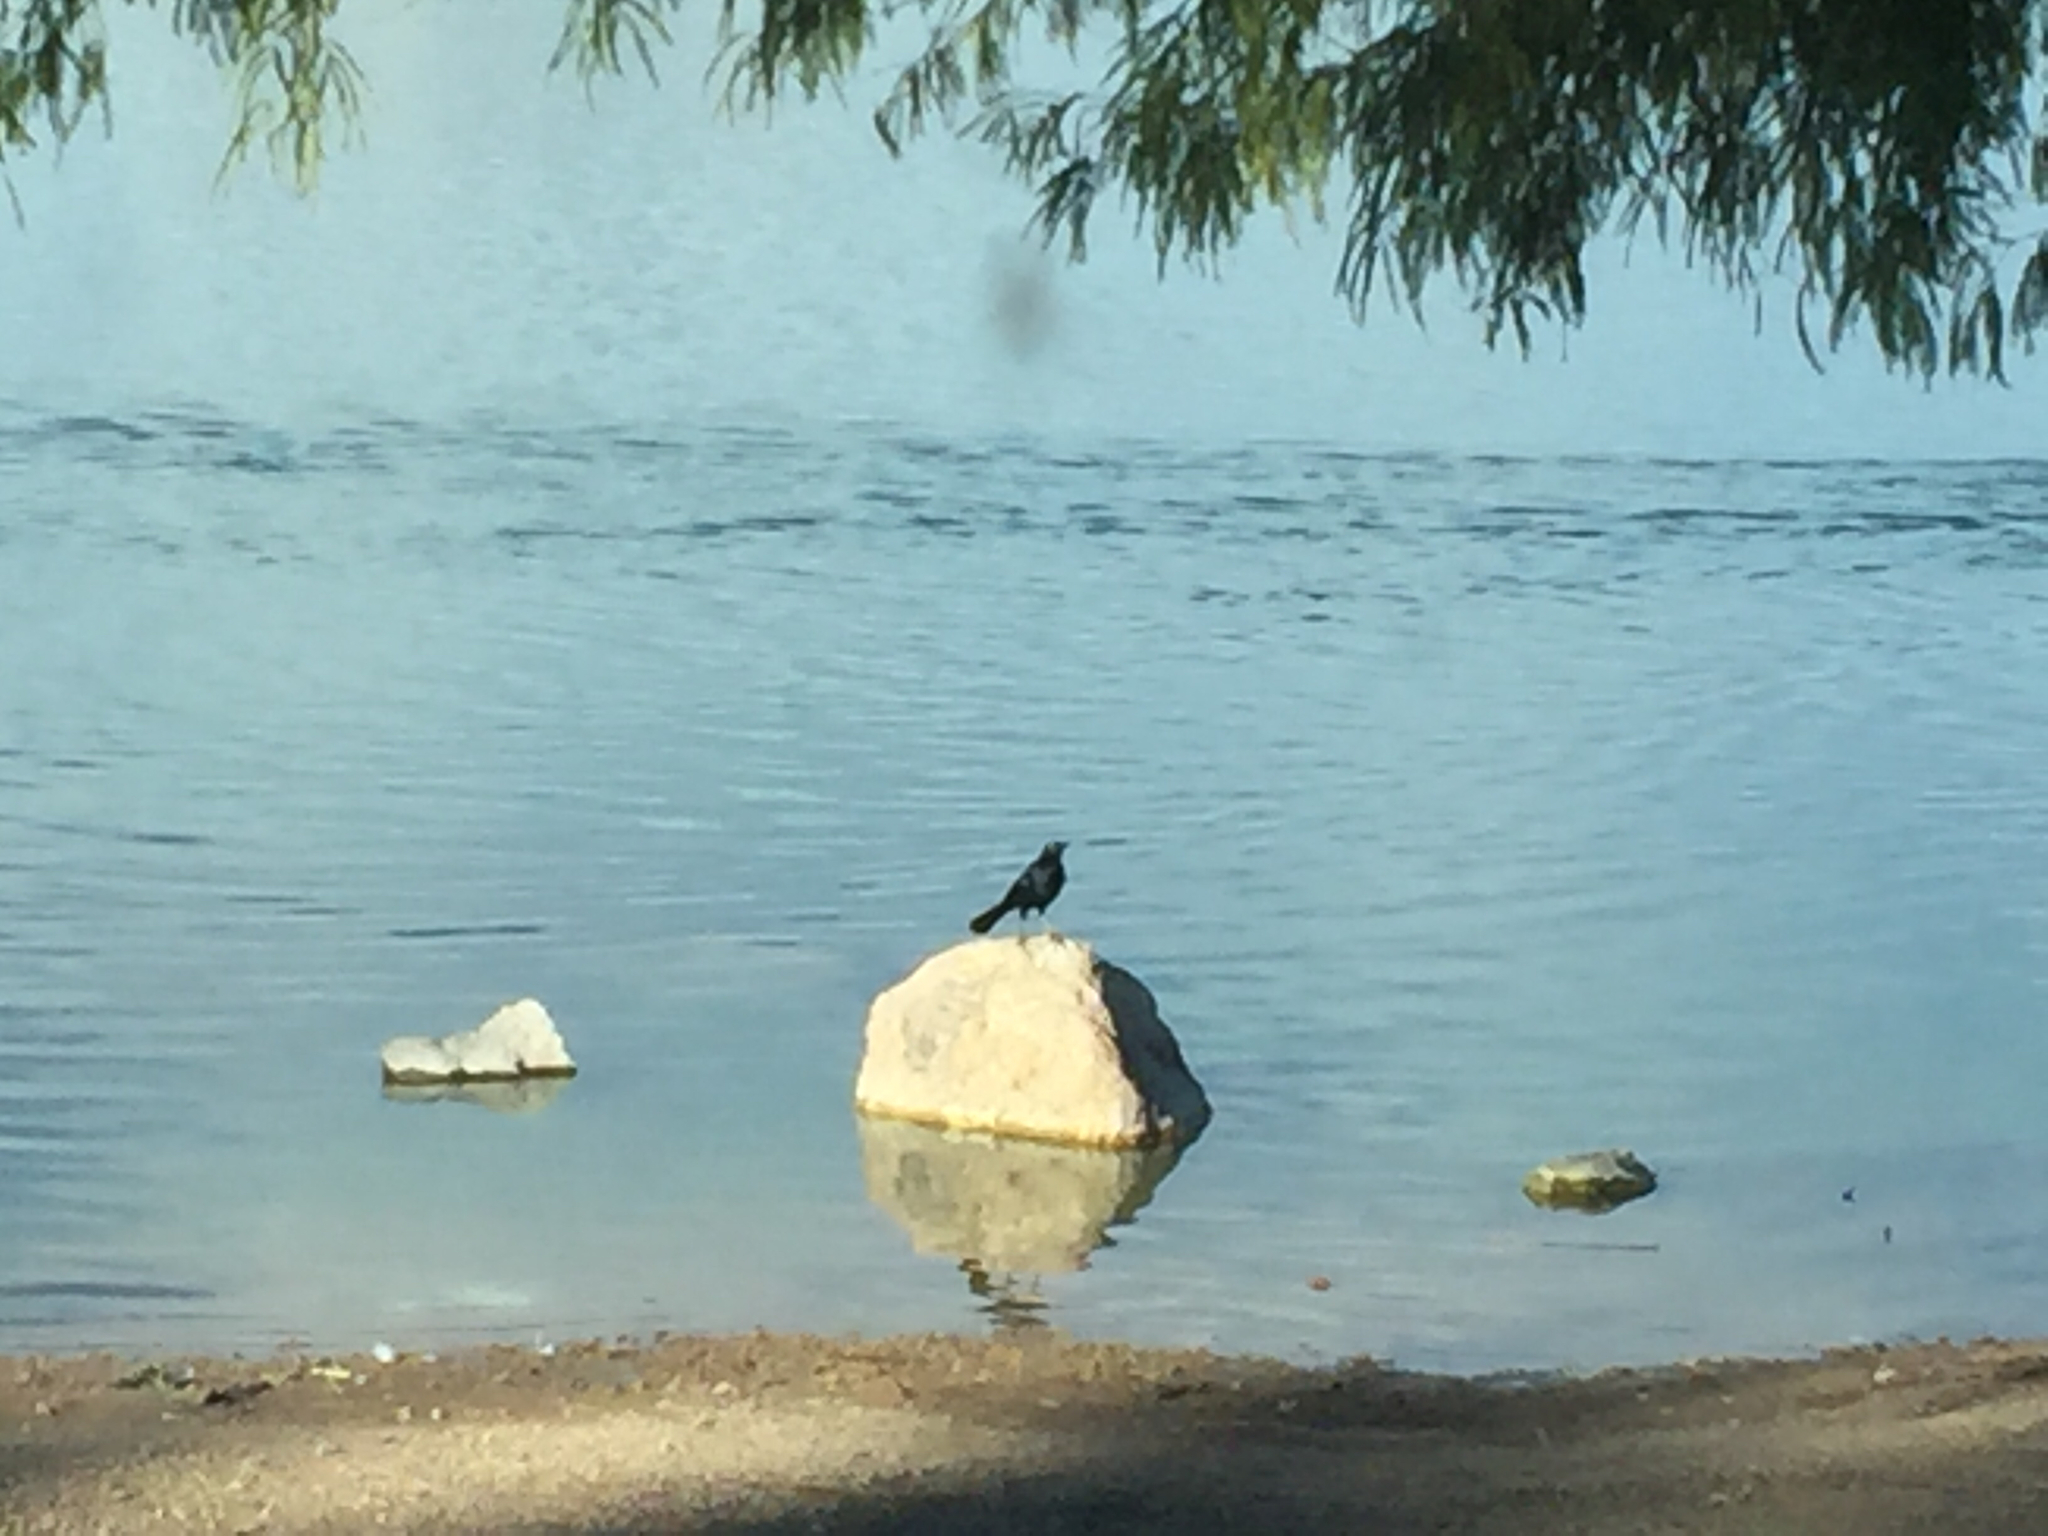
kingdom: Animalia
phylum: Chordata
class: Aves
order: Passeriformes
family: Icteridae
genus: Quiscalus
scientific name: Quiscalus mexicanus
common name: Great-tailed grackle
